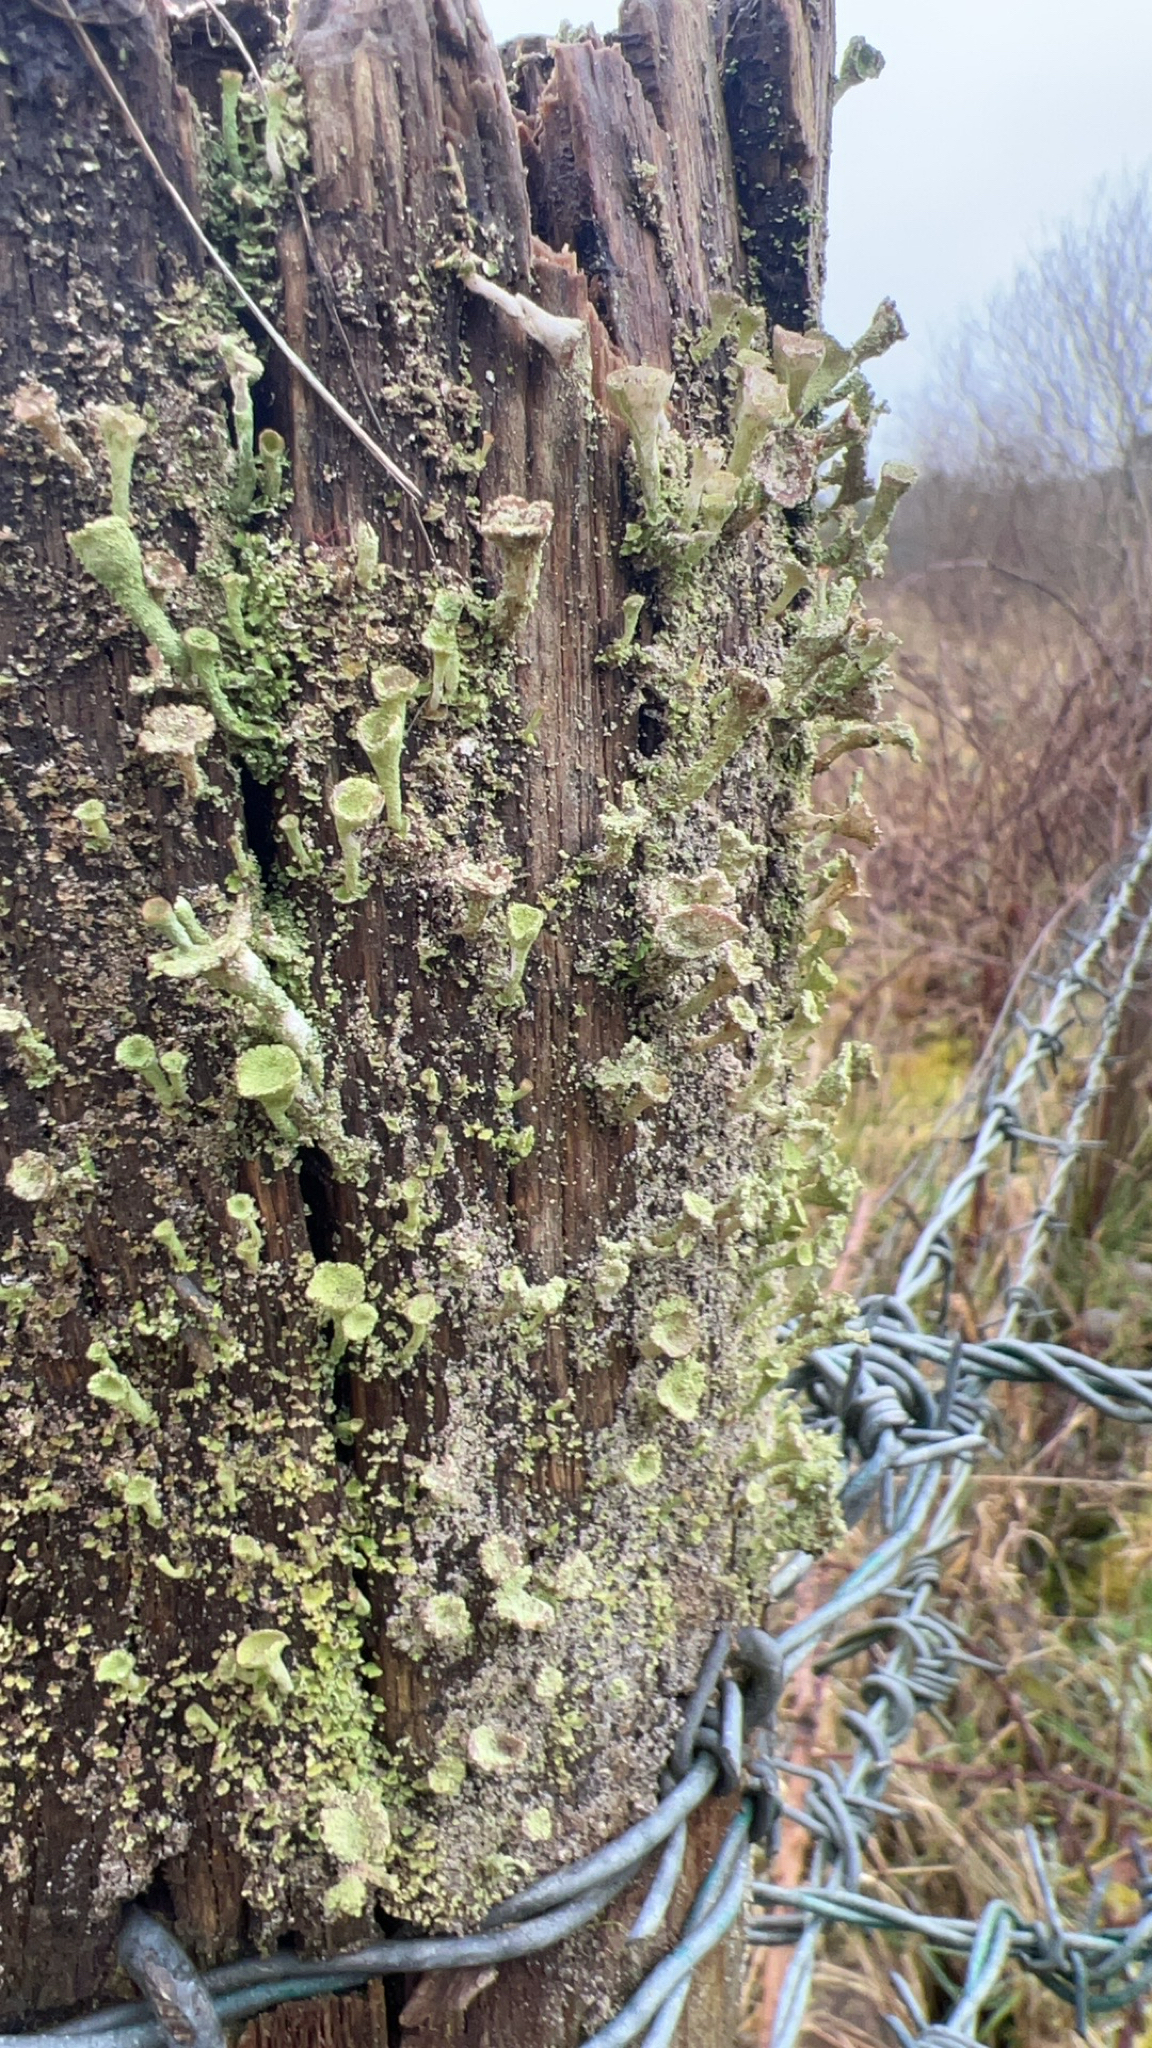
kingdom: Fungi
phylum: Ascomycota
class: Lecanoromycetes
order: Lecanorales
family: Cladoniaceae
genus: Cladonia
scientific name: Cladonia fimbriata
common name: Powdered trumpet lichen
